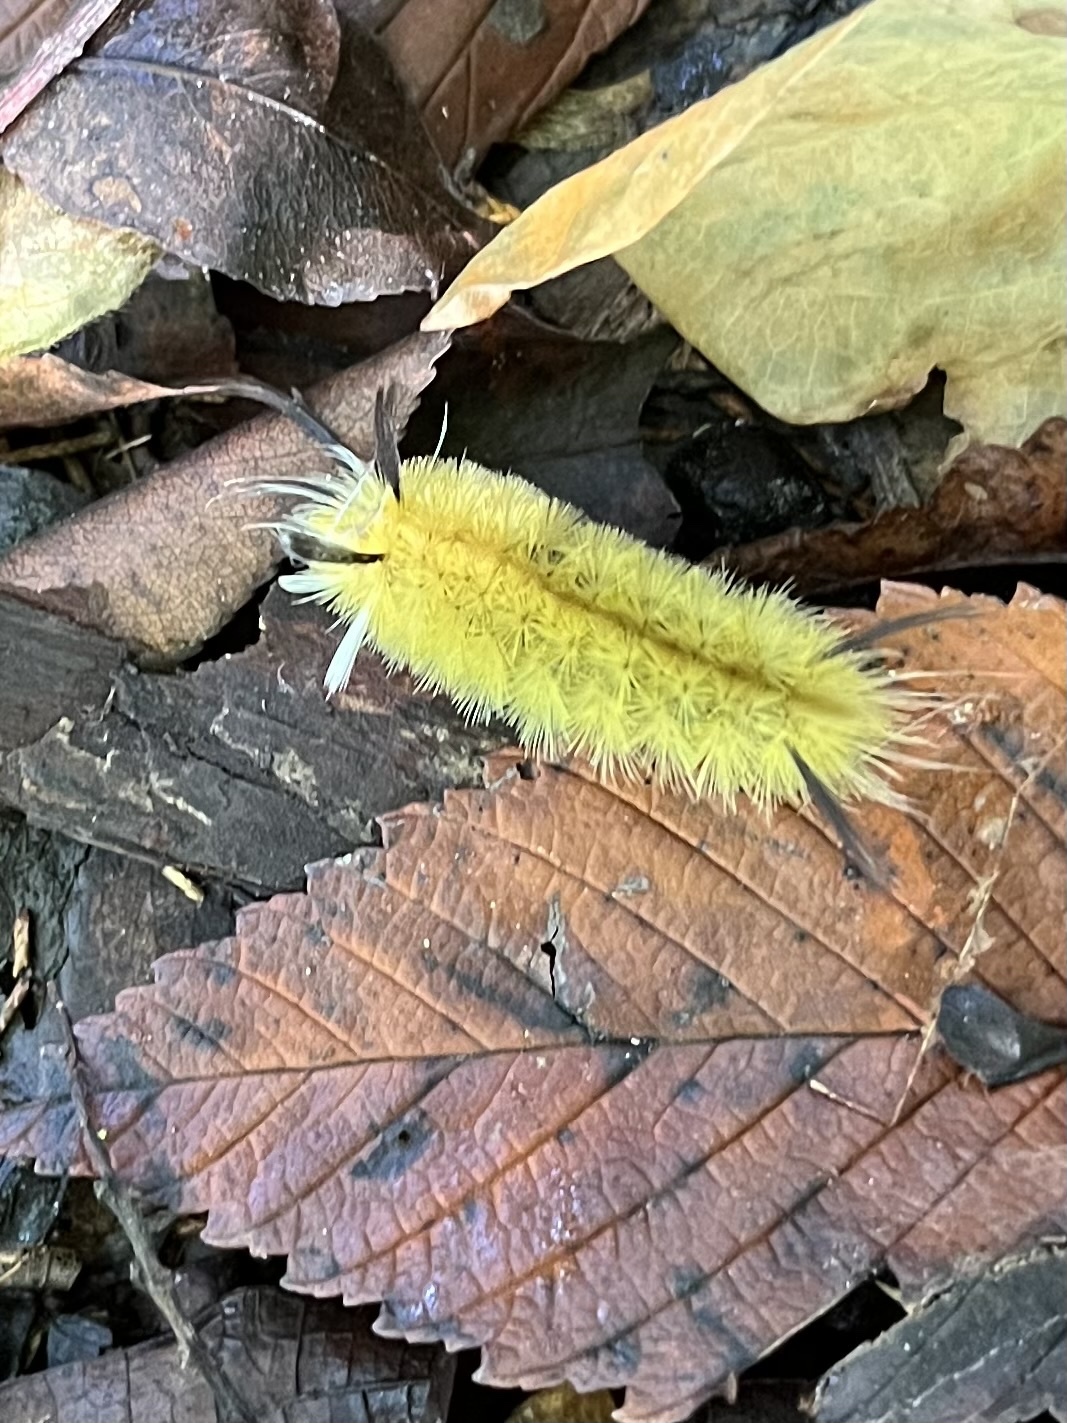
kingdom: Animalia
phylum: Arthropoda
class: Insecta
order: Lepidoptera
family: Erebidae
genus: Halysidota
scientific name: Halysidota tessellaris
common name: Banded tussock moth
